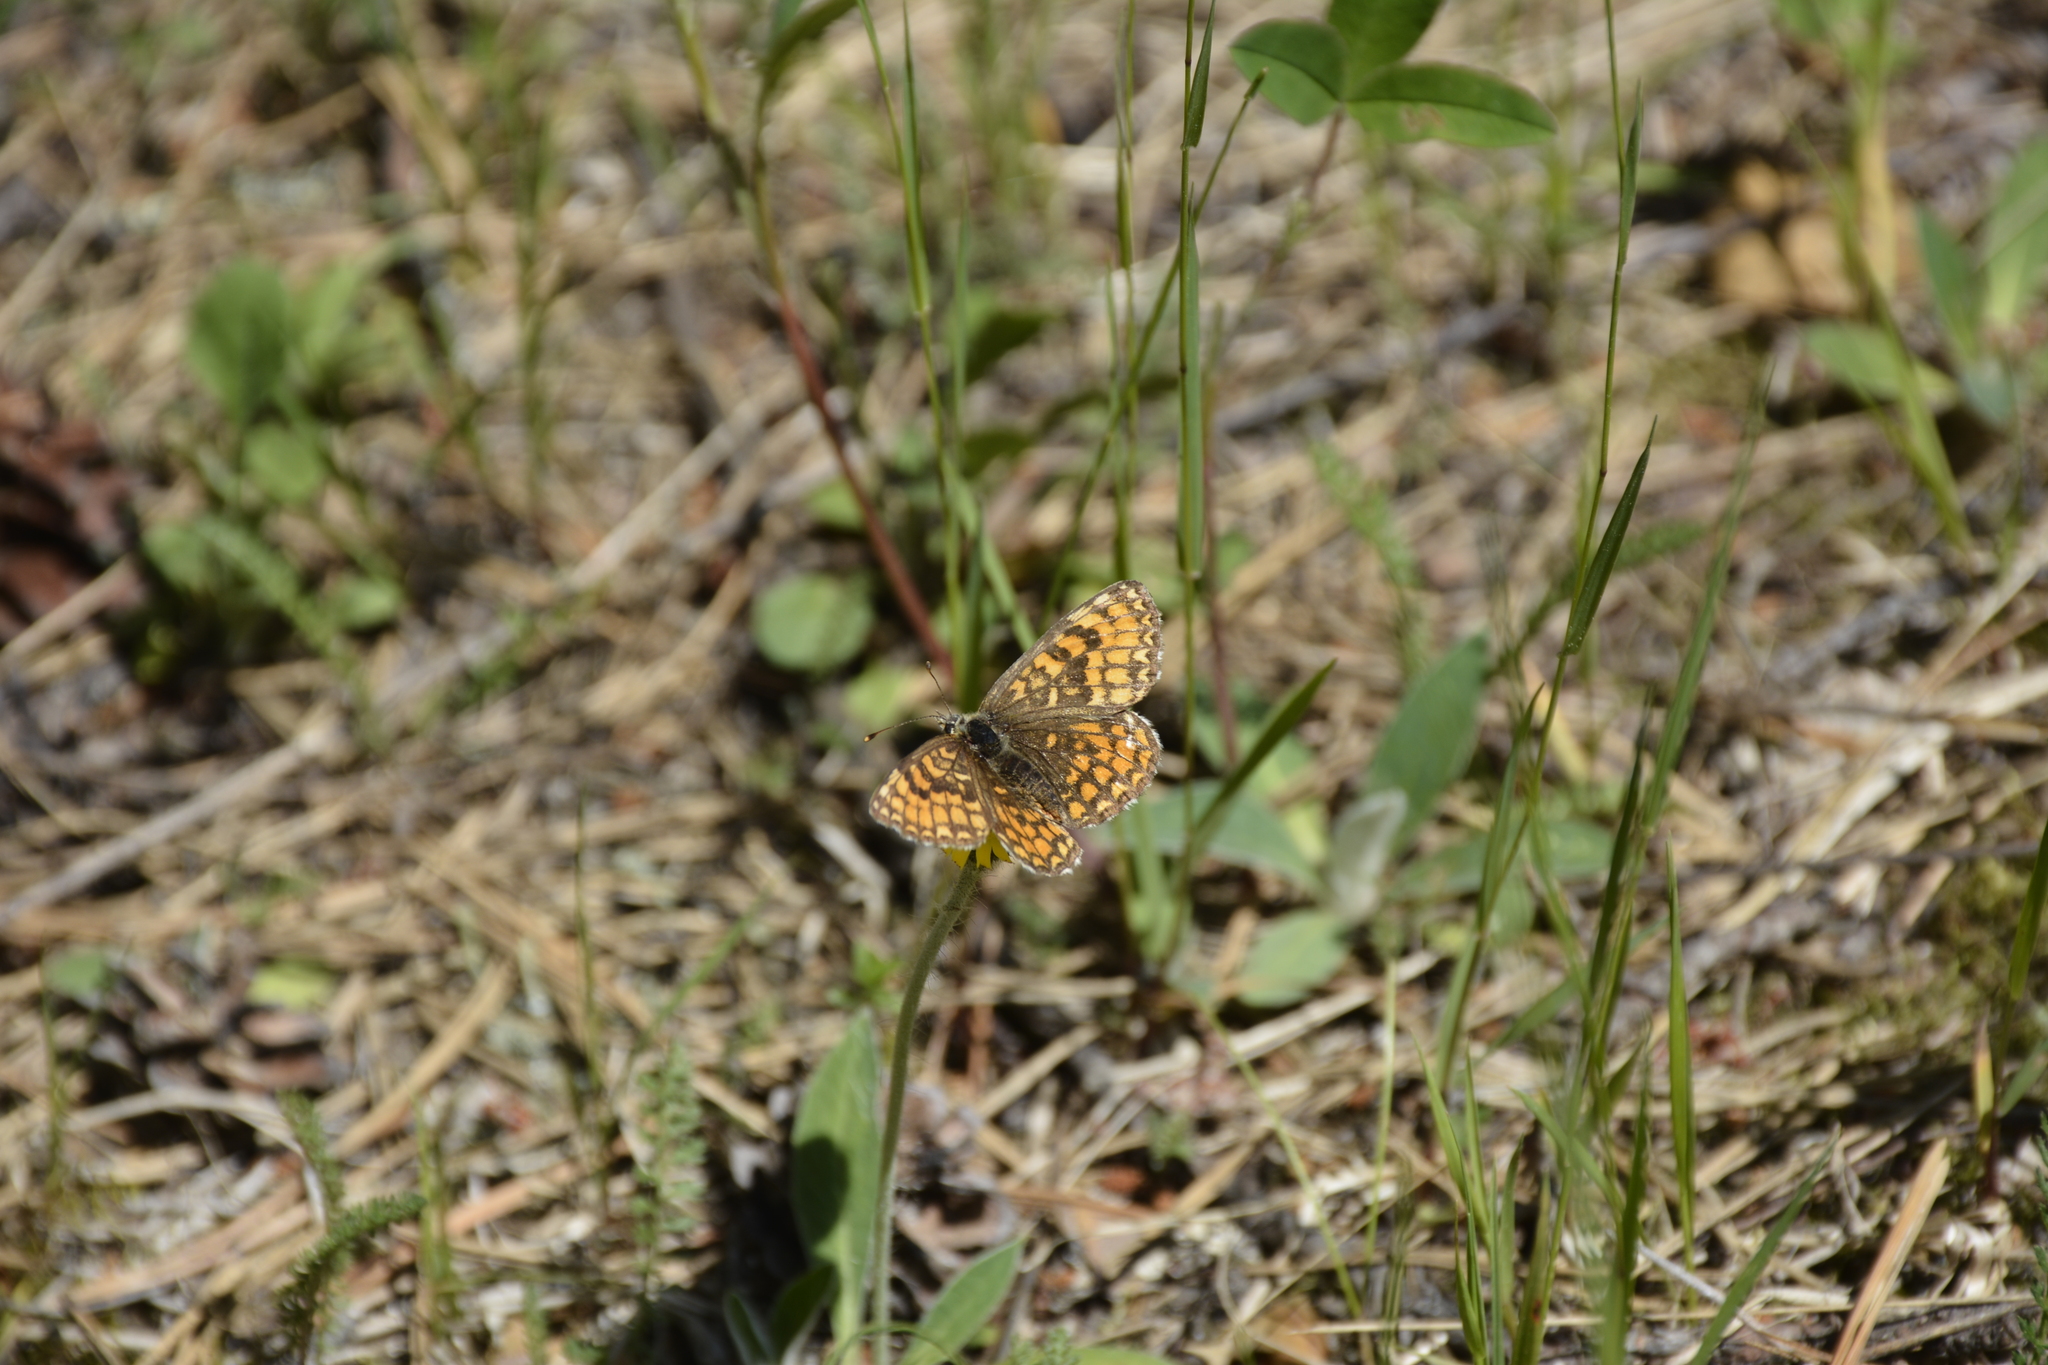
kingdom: Animalia
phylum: Arthropoda
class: Insecta
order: Lepidoptera
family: Nymphalidae
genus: Melitaea
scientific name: Melitaea athalia
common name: Heath fritillary
